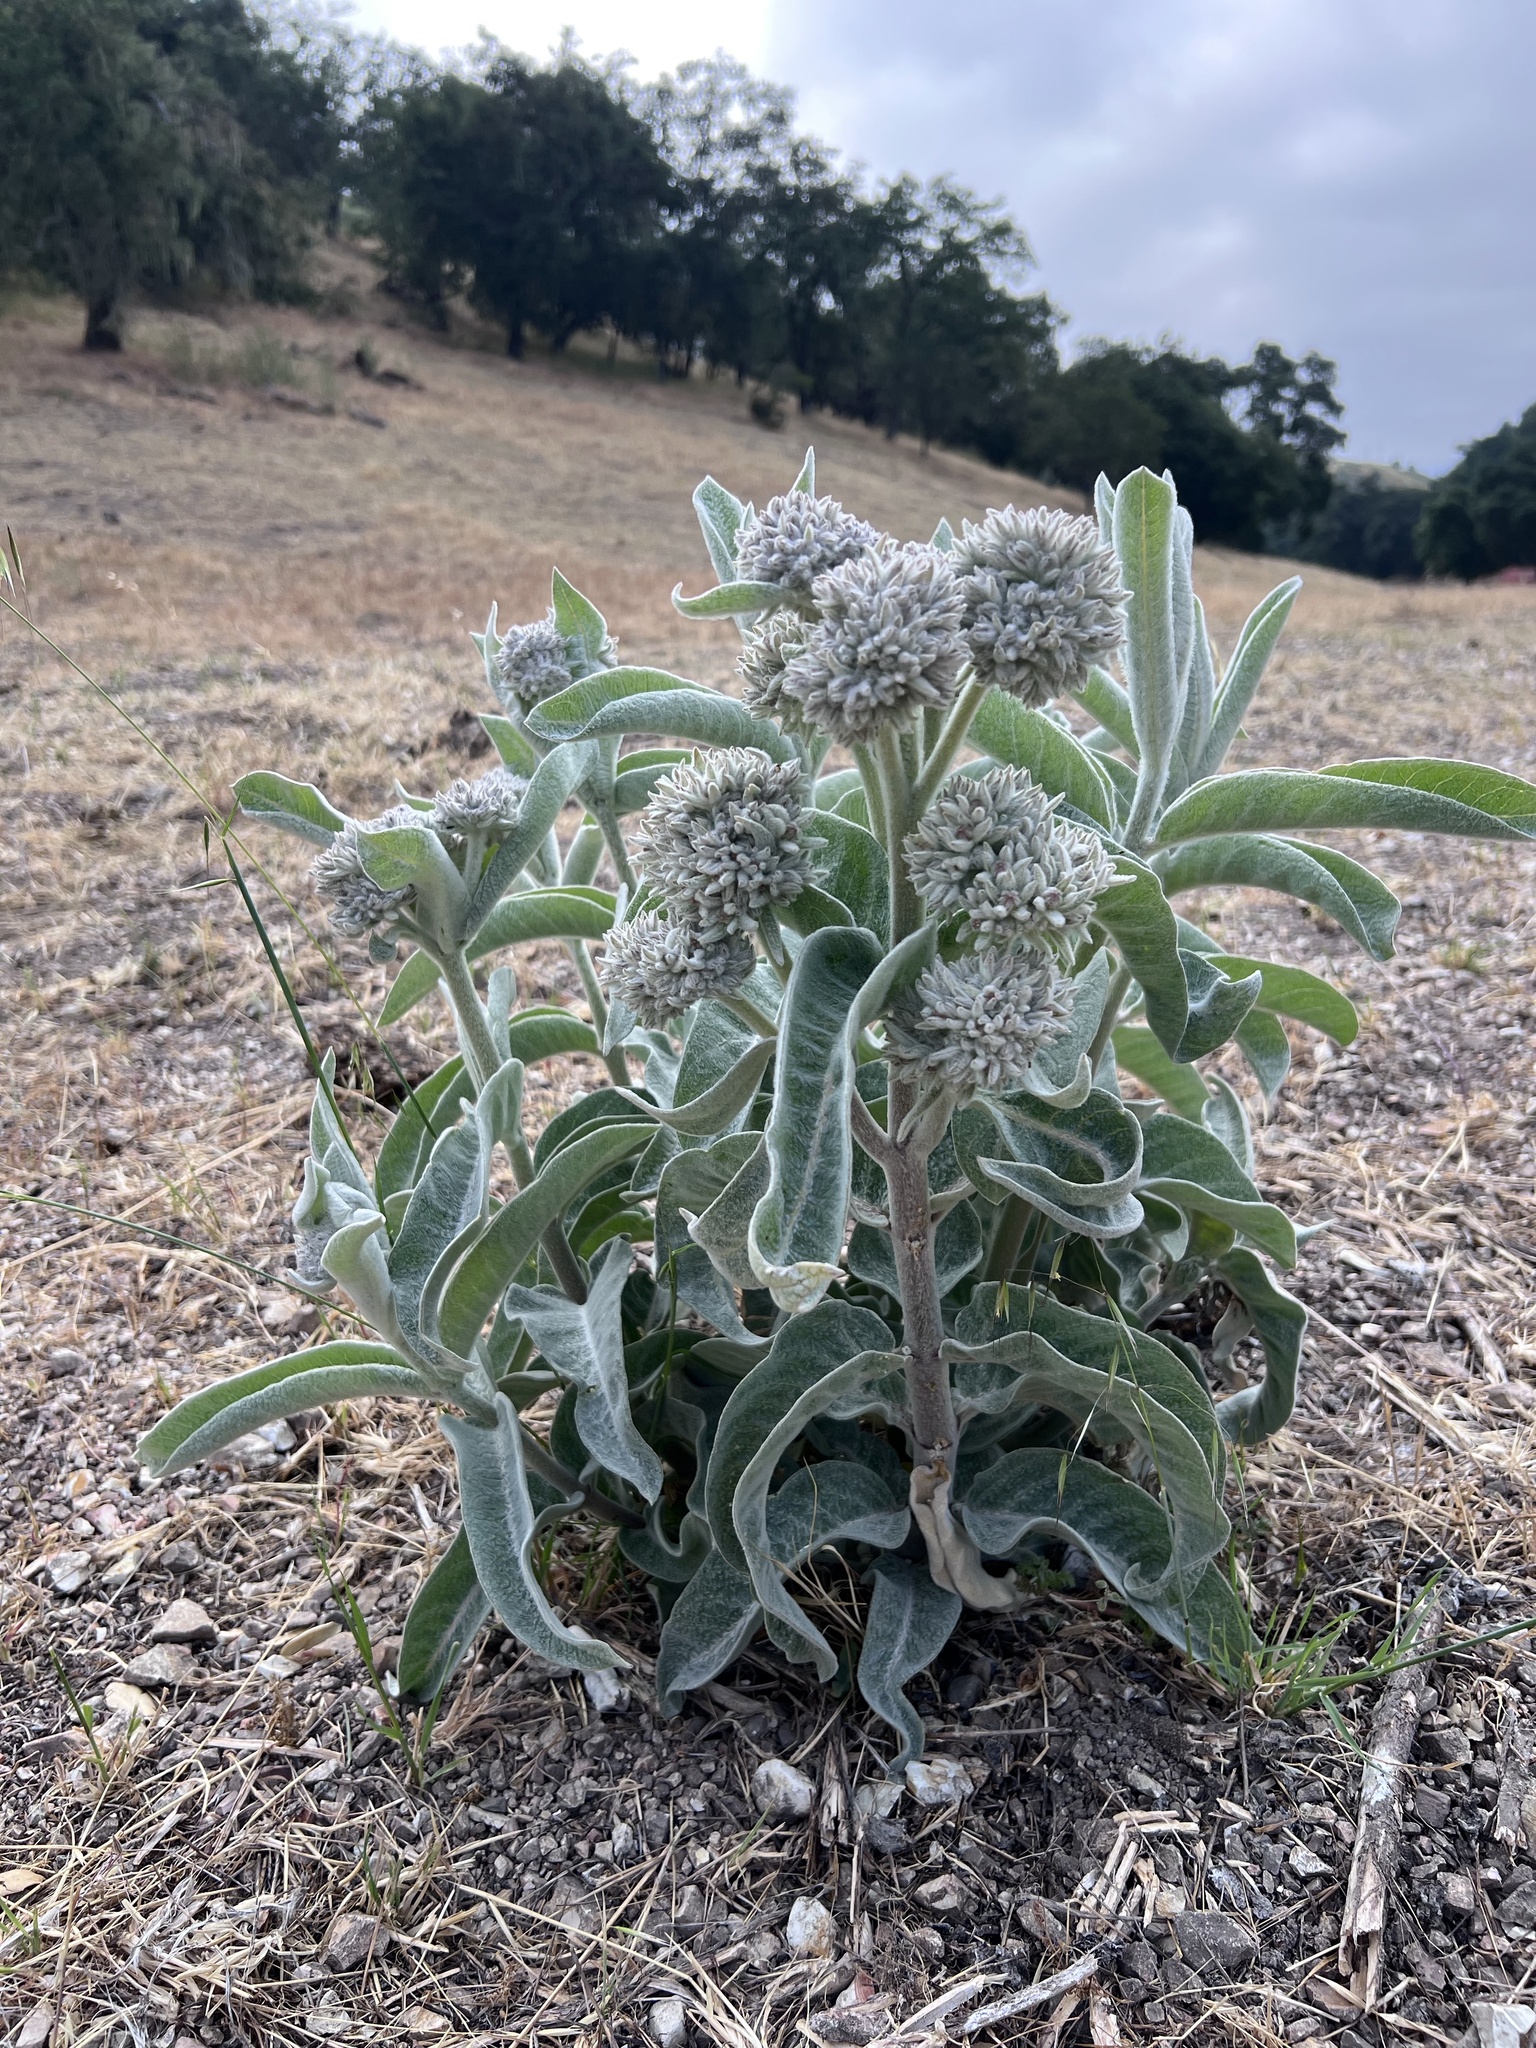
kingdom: Plantae
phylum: Tracheophyta
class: Magnoliopsida
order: Gentianales
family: Apocynaceae
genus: Asclepias
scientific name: Asclepias eriocarpa
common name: Indian milkweed
